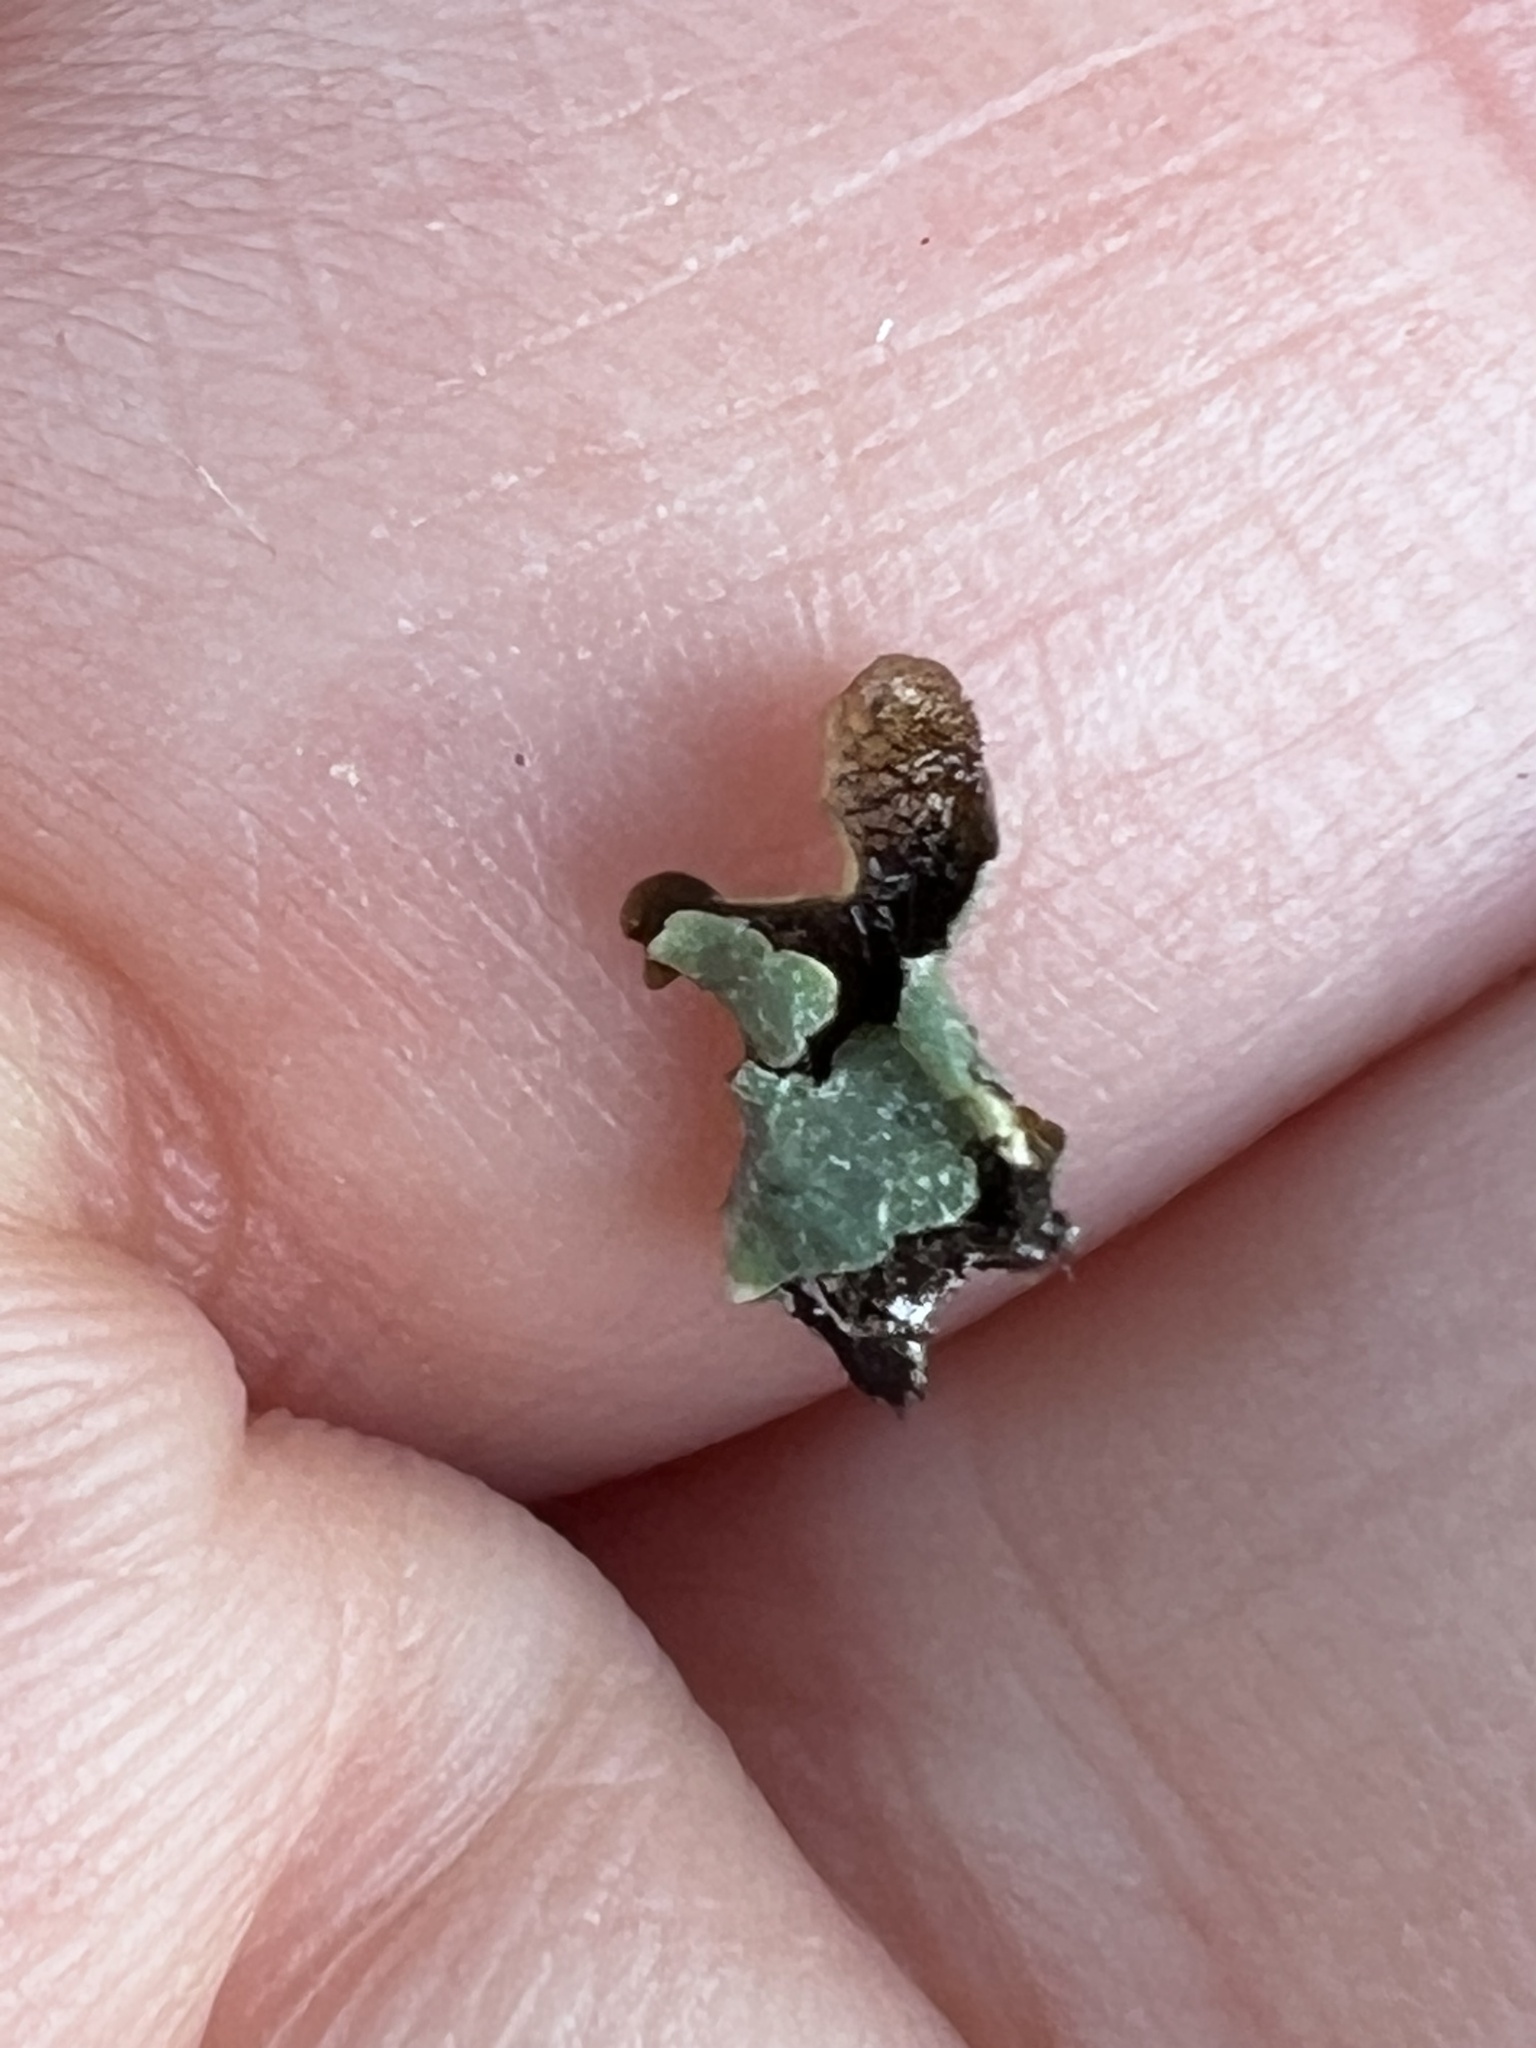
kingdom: Fungi
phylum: Ascomycota
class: Lecanoromycetes
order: Lecanorales
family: Parmeliaceae
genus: Parmelia
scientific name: Parmelia sulcata
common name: Netted shield lichen
